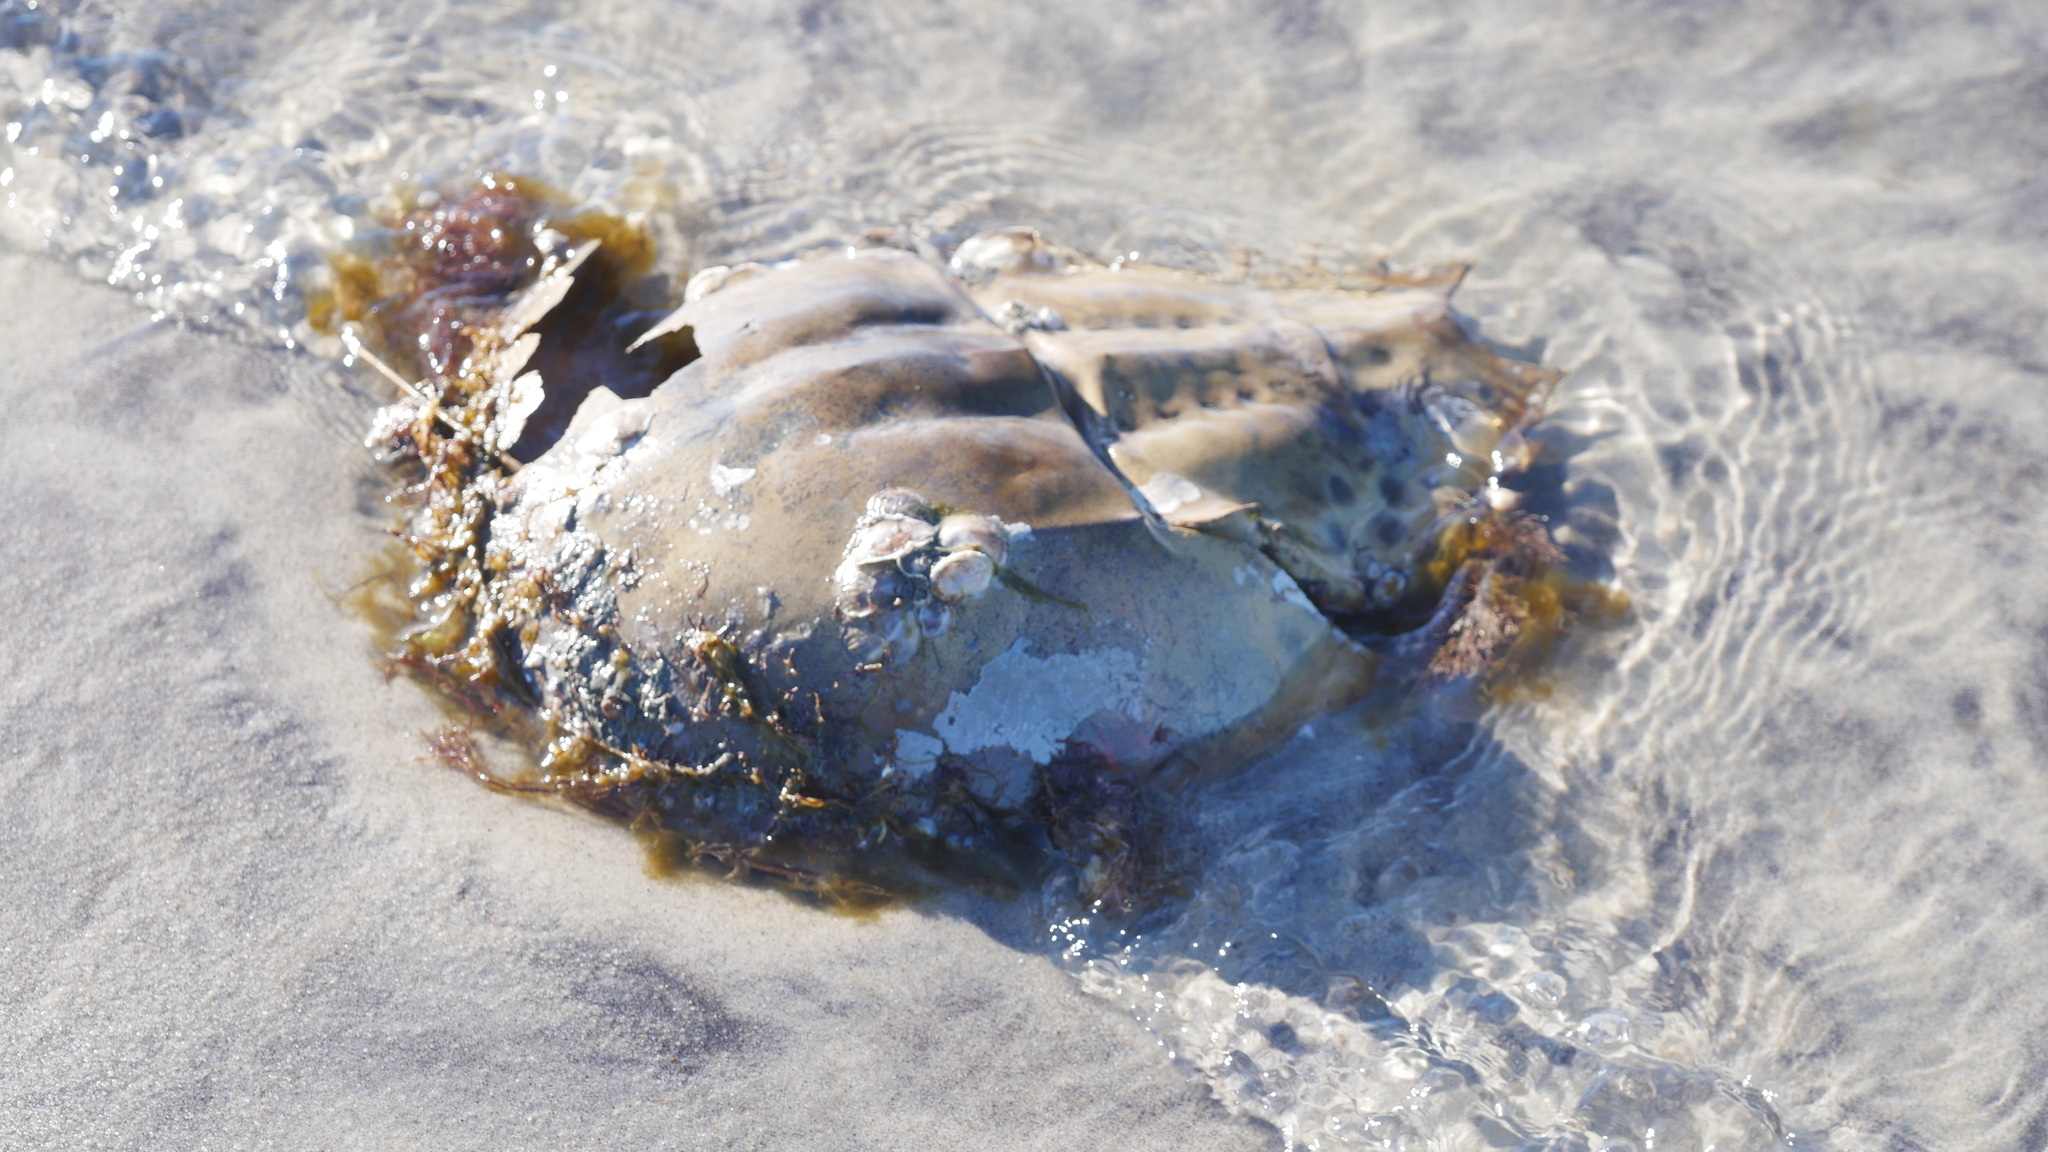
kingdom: Animalia
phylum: Arthropoda
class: Merostomata
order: Xiphosurida
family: Limulidae
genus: Limulus
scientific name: Limulus polyphemus
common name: Horseshoe crab
